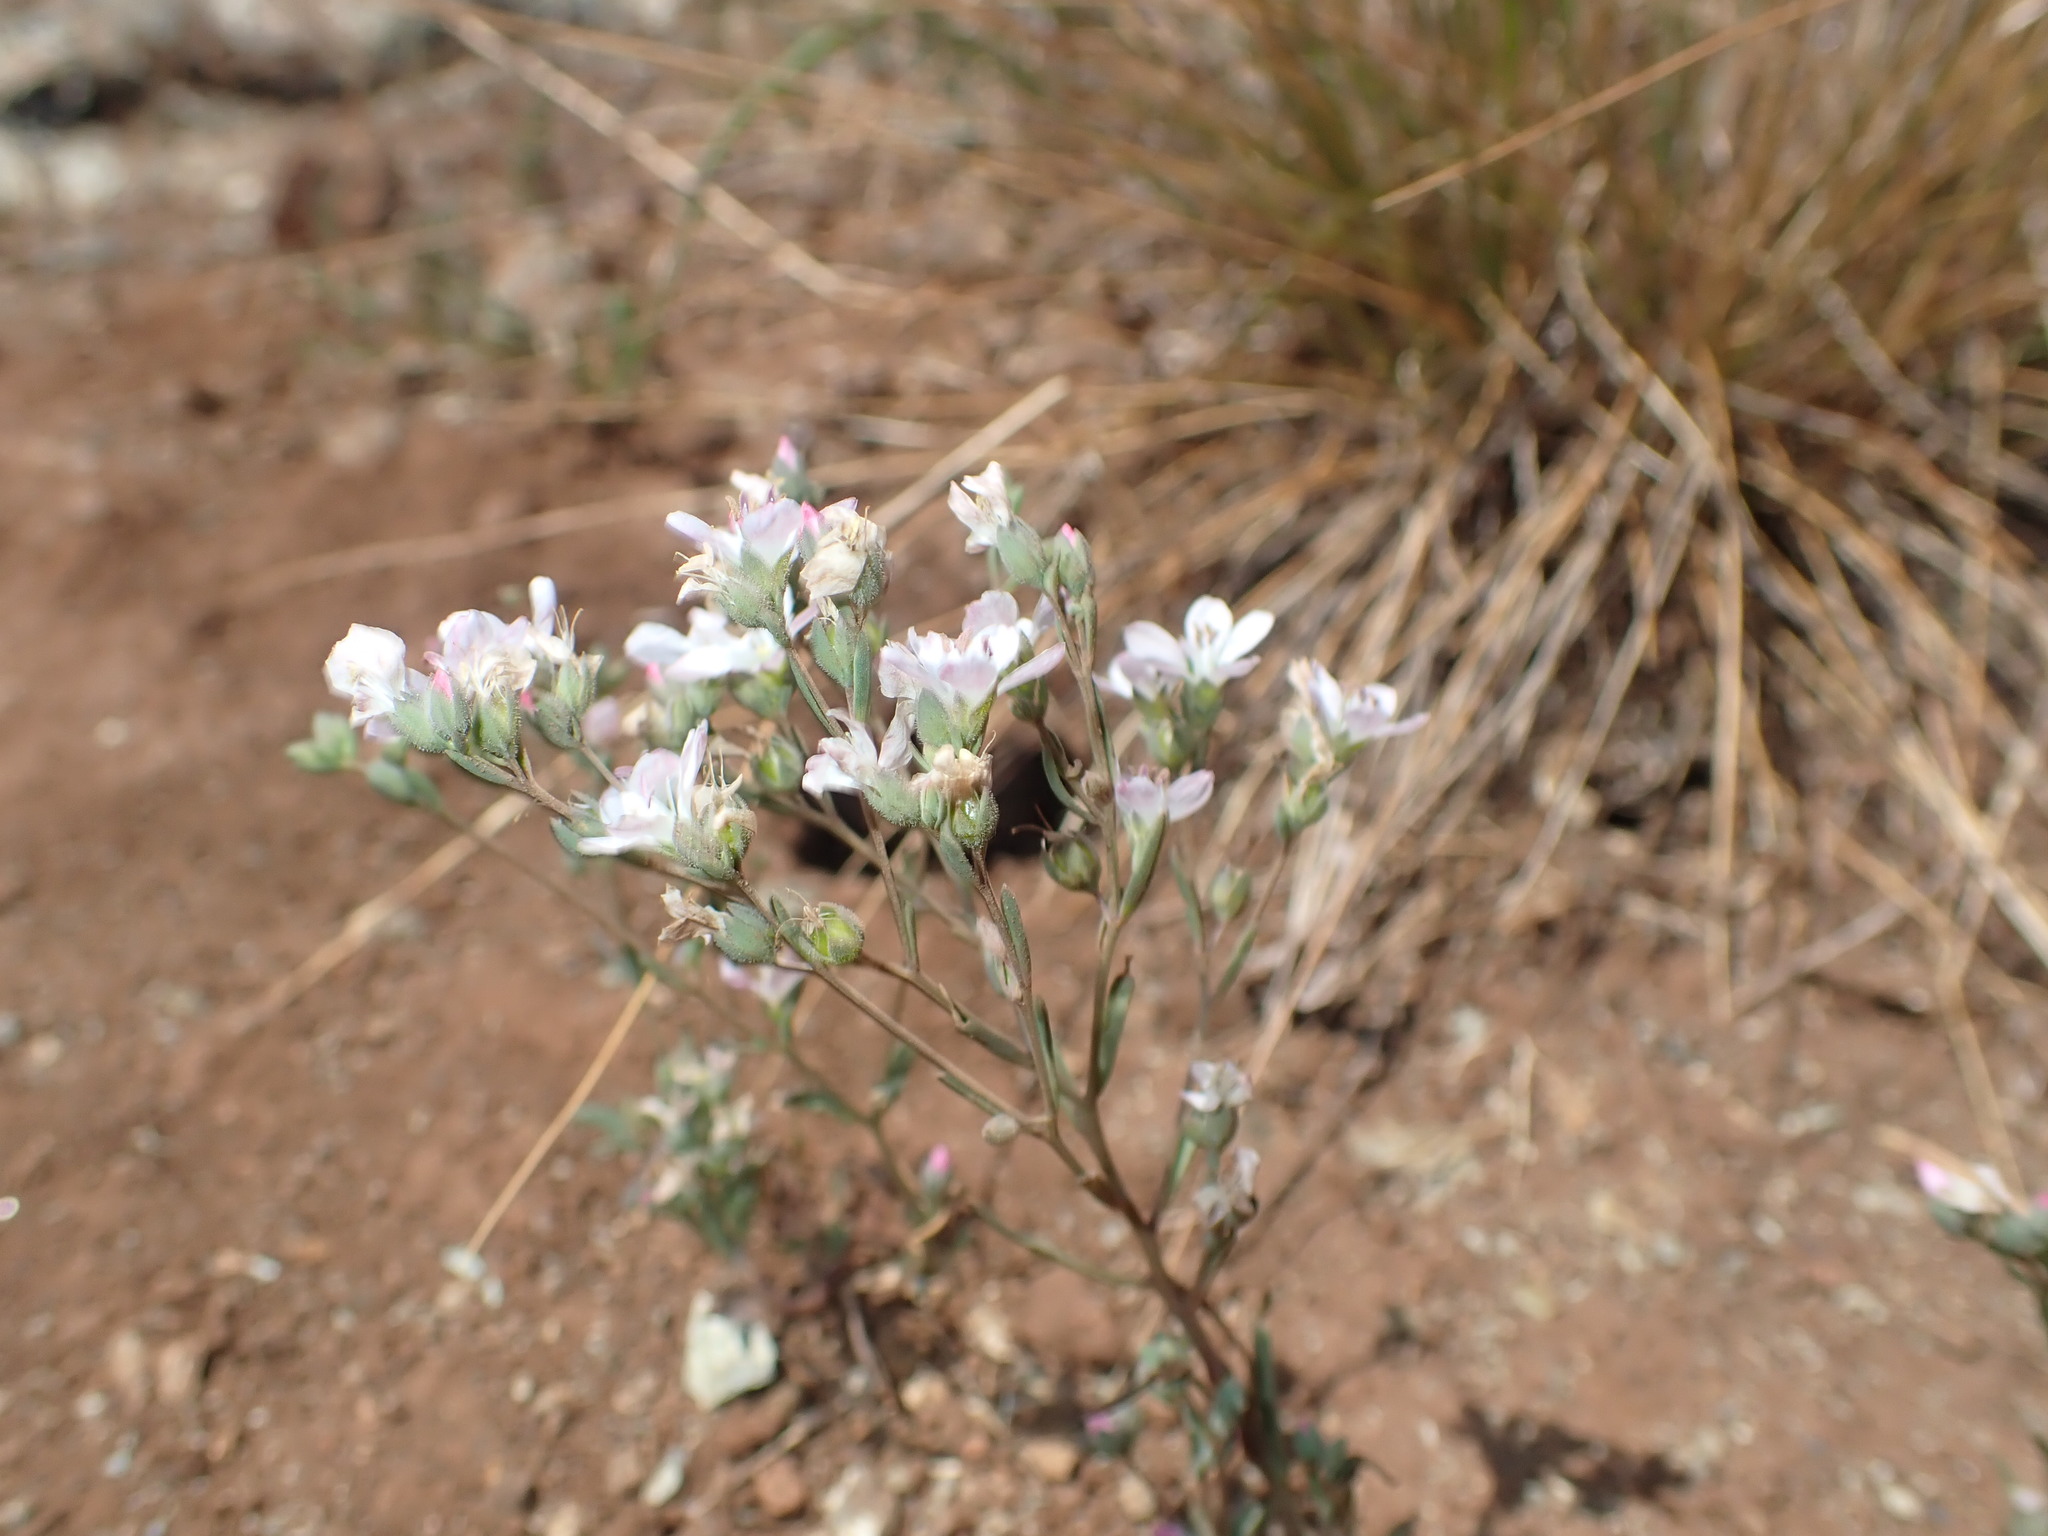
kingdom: Plantae
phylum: Tracheophyta
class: Magnoliopsida
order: Malpighiales
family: Linaceae
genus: Hesperolinon
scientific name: Hesperolinon congestum
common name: Marin dwarf-flax
